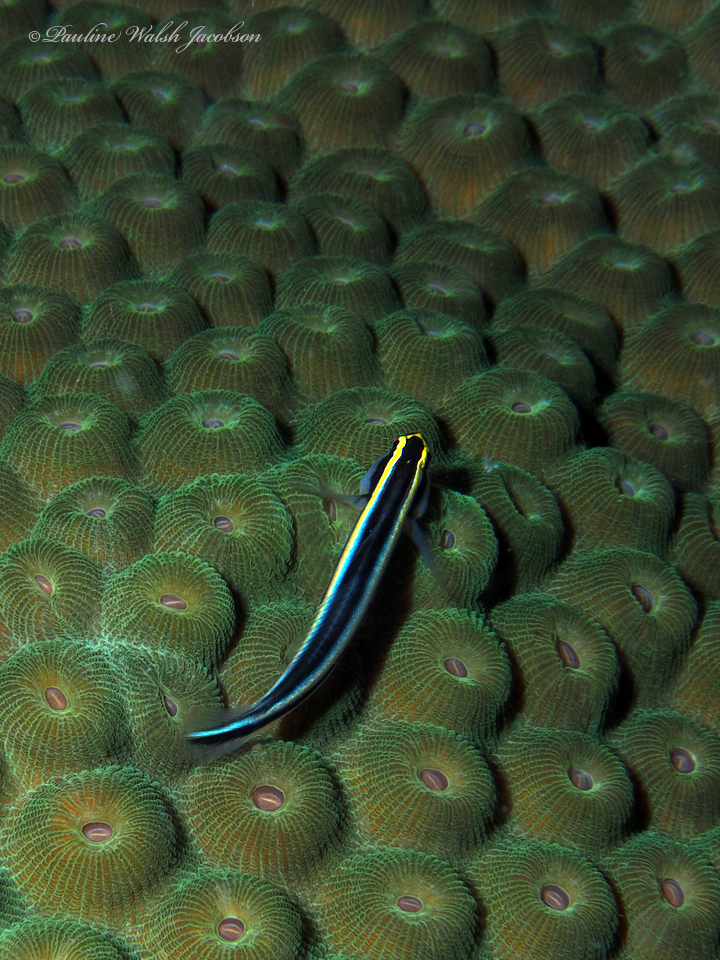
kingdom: Animalia
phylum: Chordata
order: Perciformes
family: Gobiidae
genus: Elacatinus
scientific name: Elacatinus evelynae
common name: Sharknose goby
